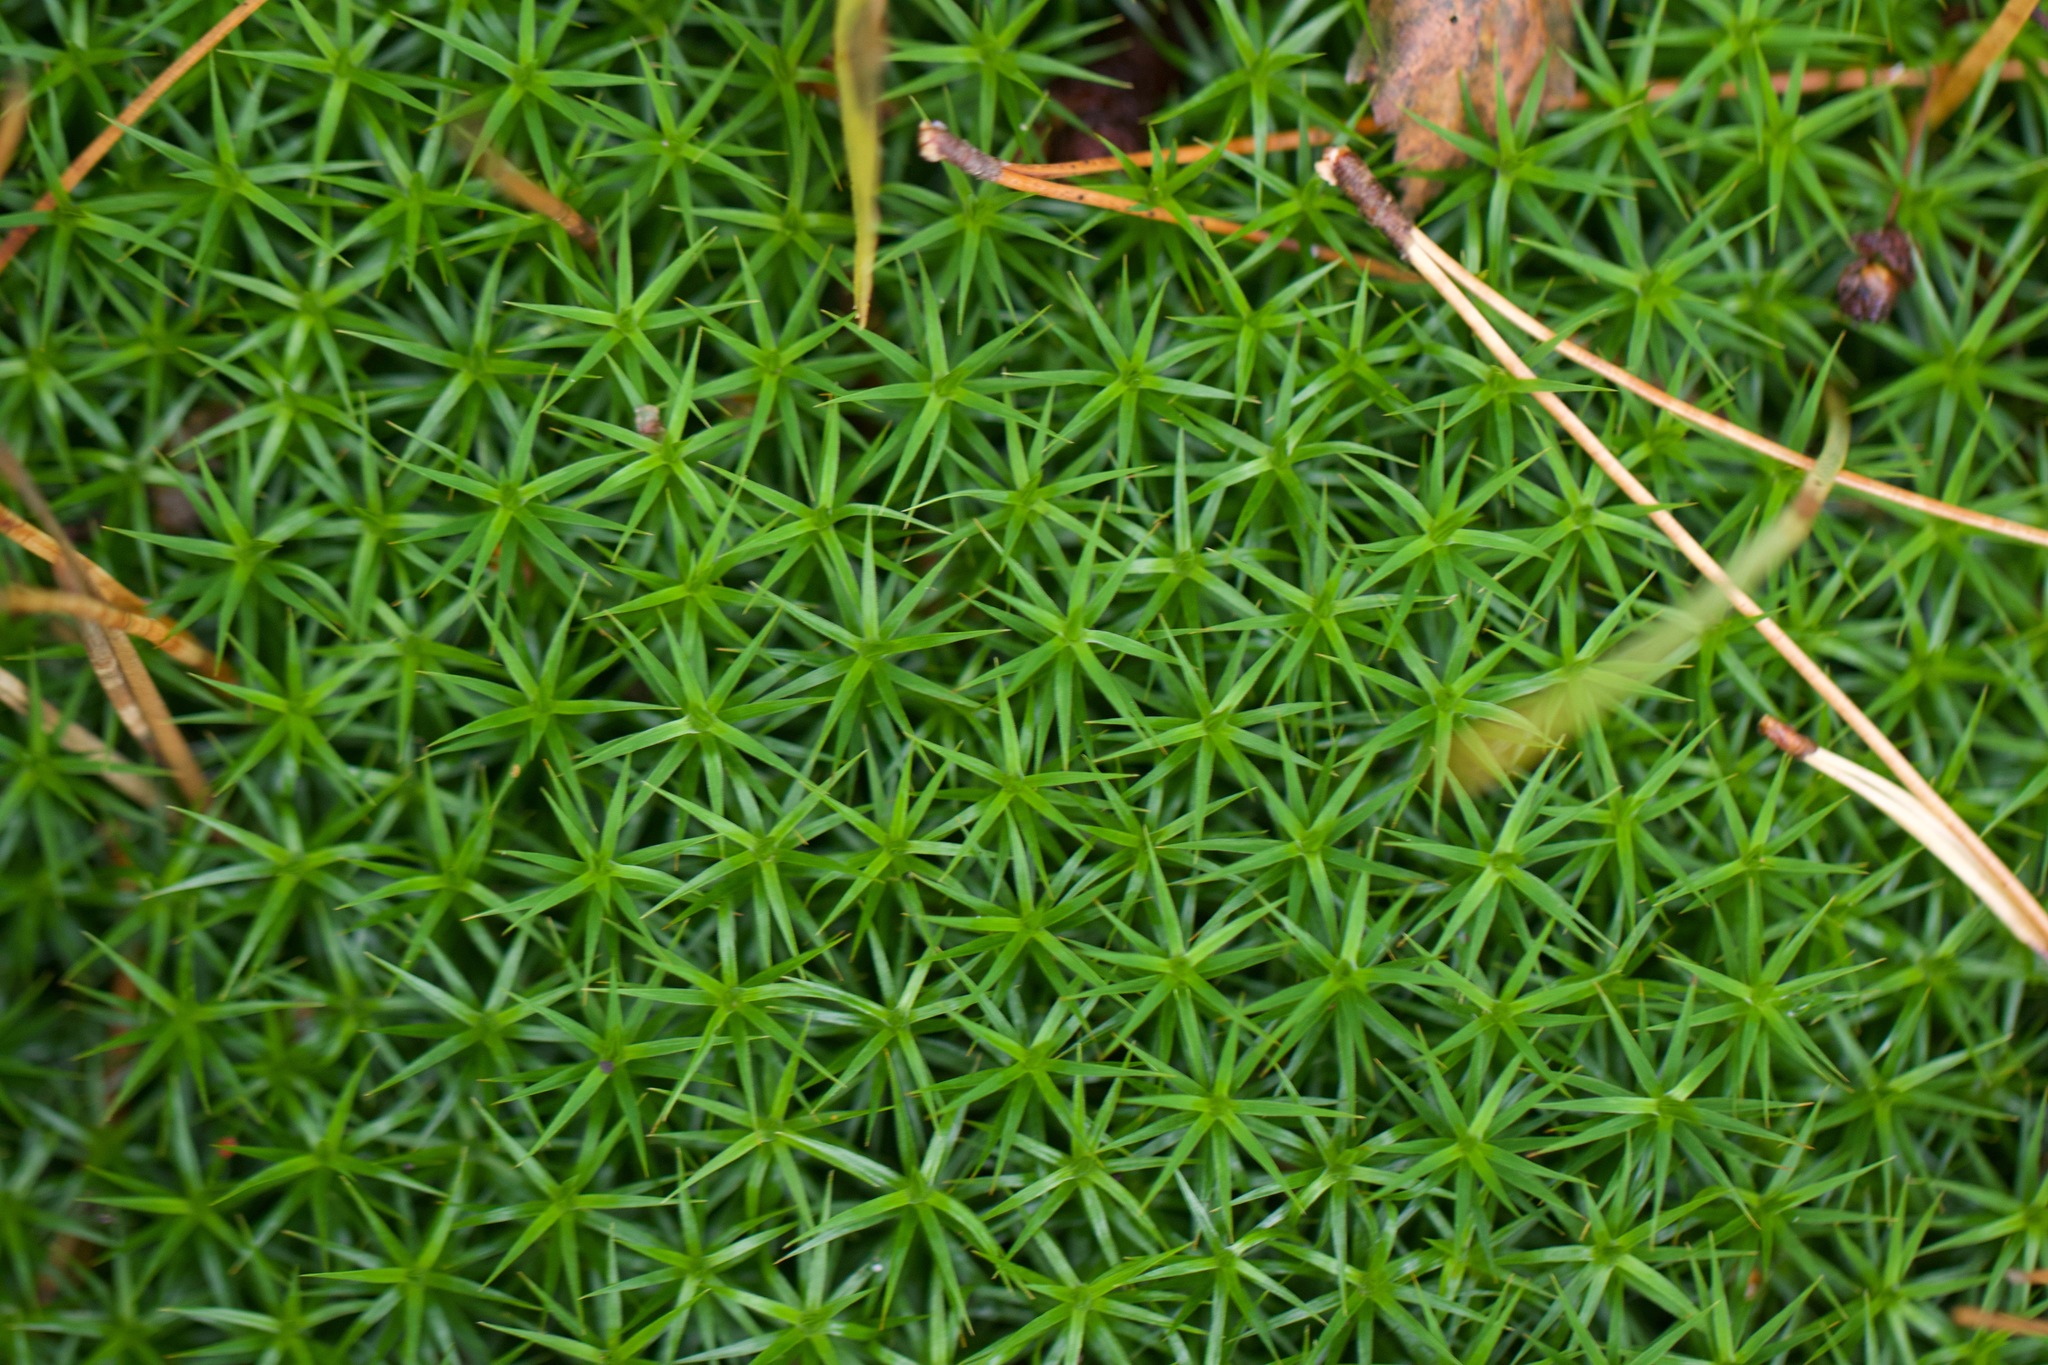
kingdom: Plantae
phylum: Bryophyta
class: Polytrichopsida
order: Polytrichales
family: Polytrichaceae
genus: Polytrichum
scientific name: Polytrichum formosum
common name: Bank haircap moss
